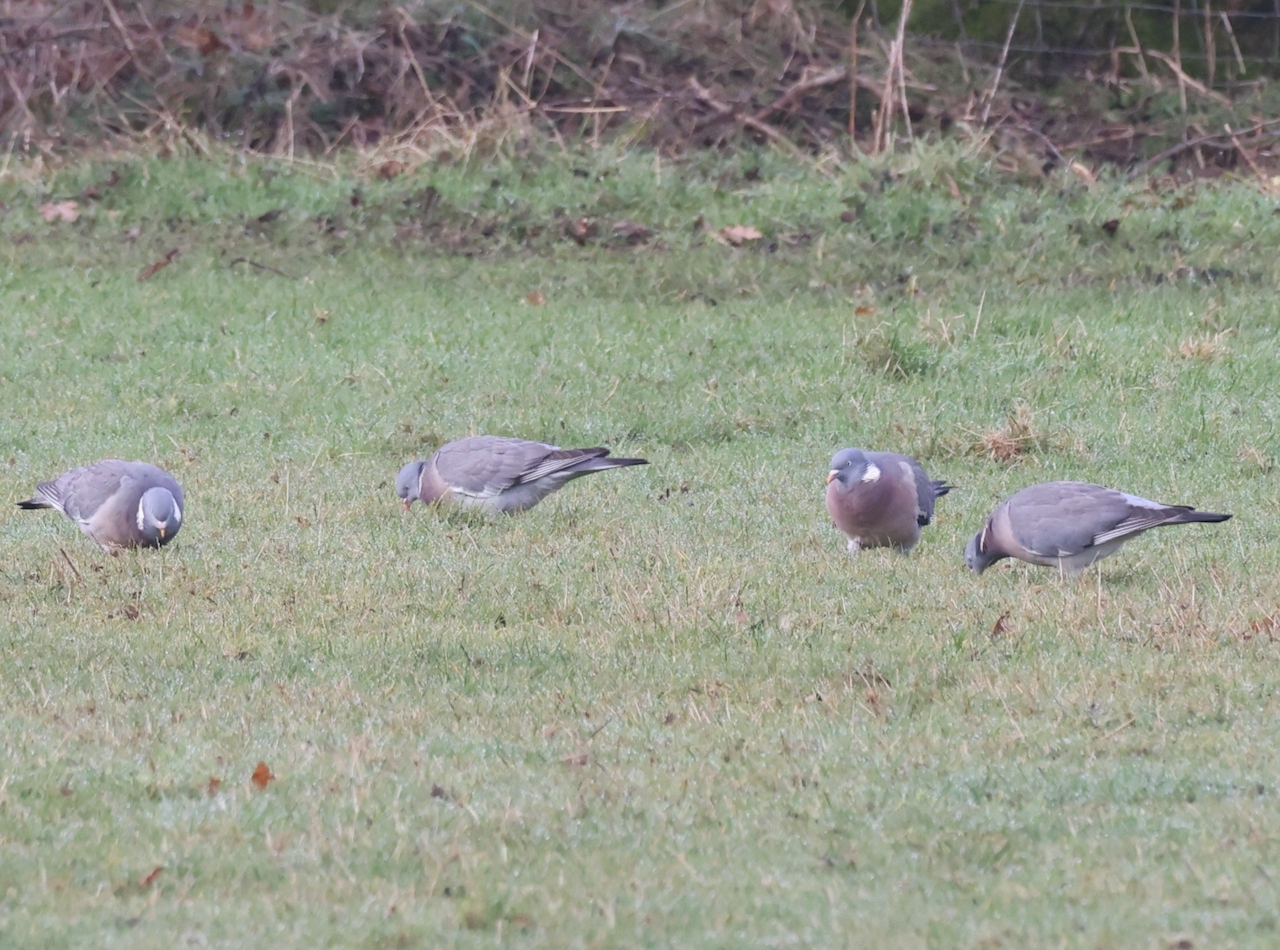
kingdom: Animalia
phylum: Chordata
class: Aves
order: Columbiformes
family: Columbidae
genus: Columba
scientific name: Columba palumbus
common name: Common wood pigeon
